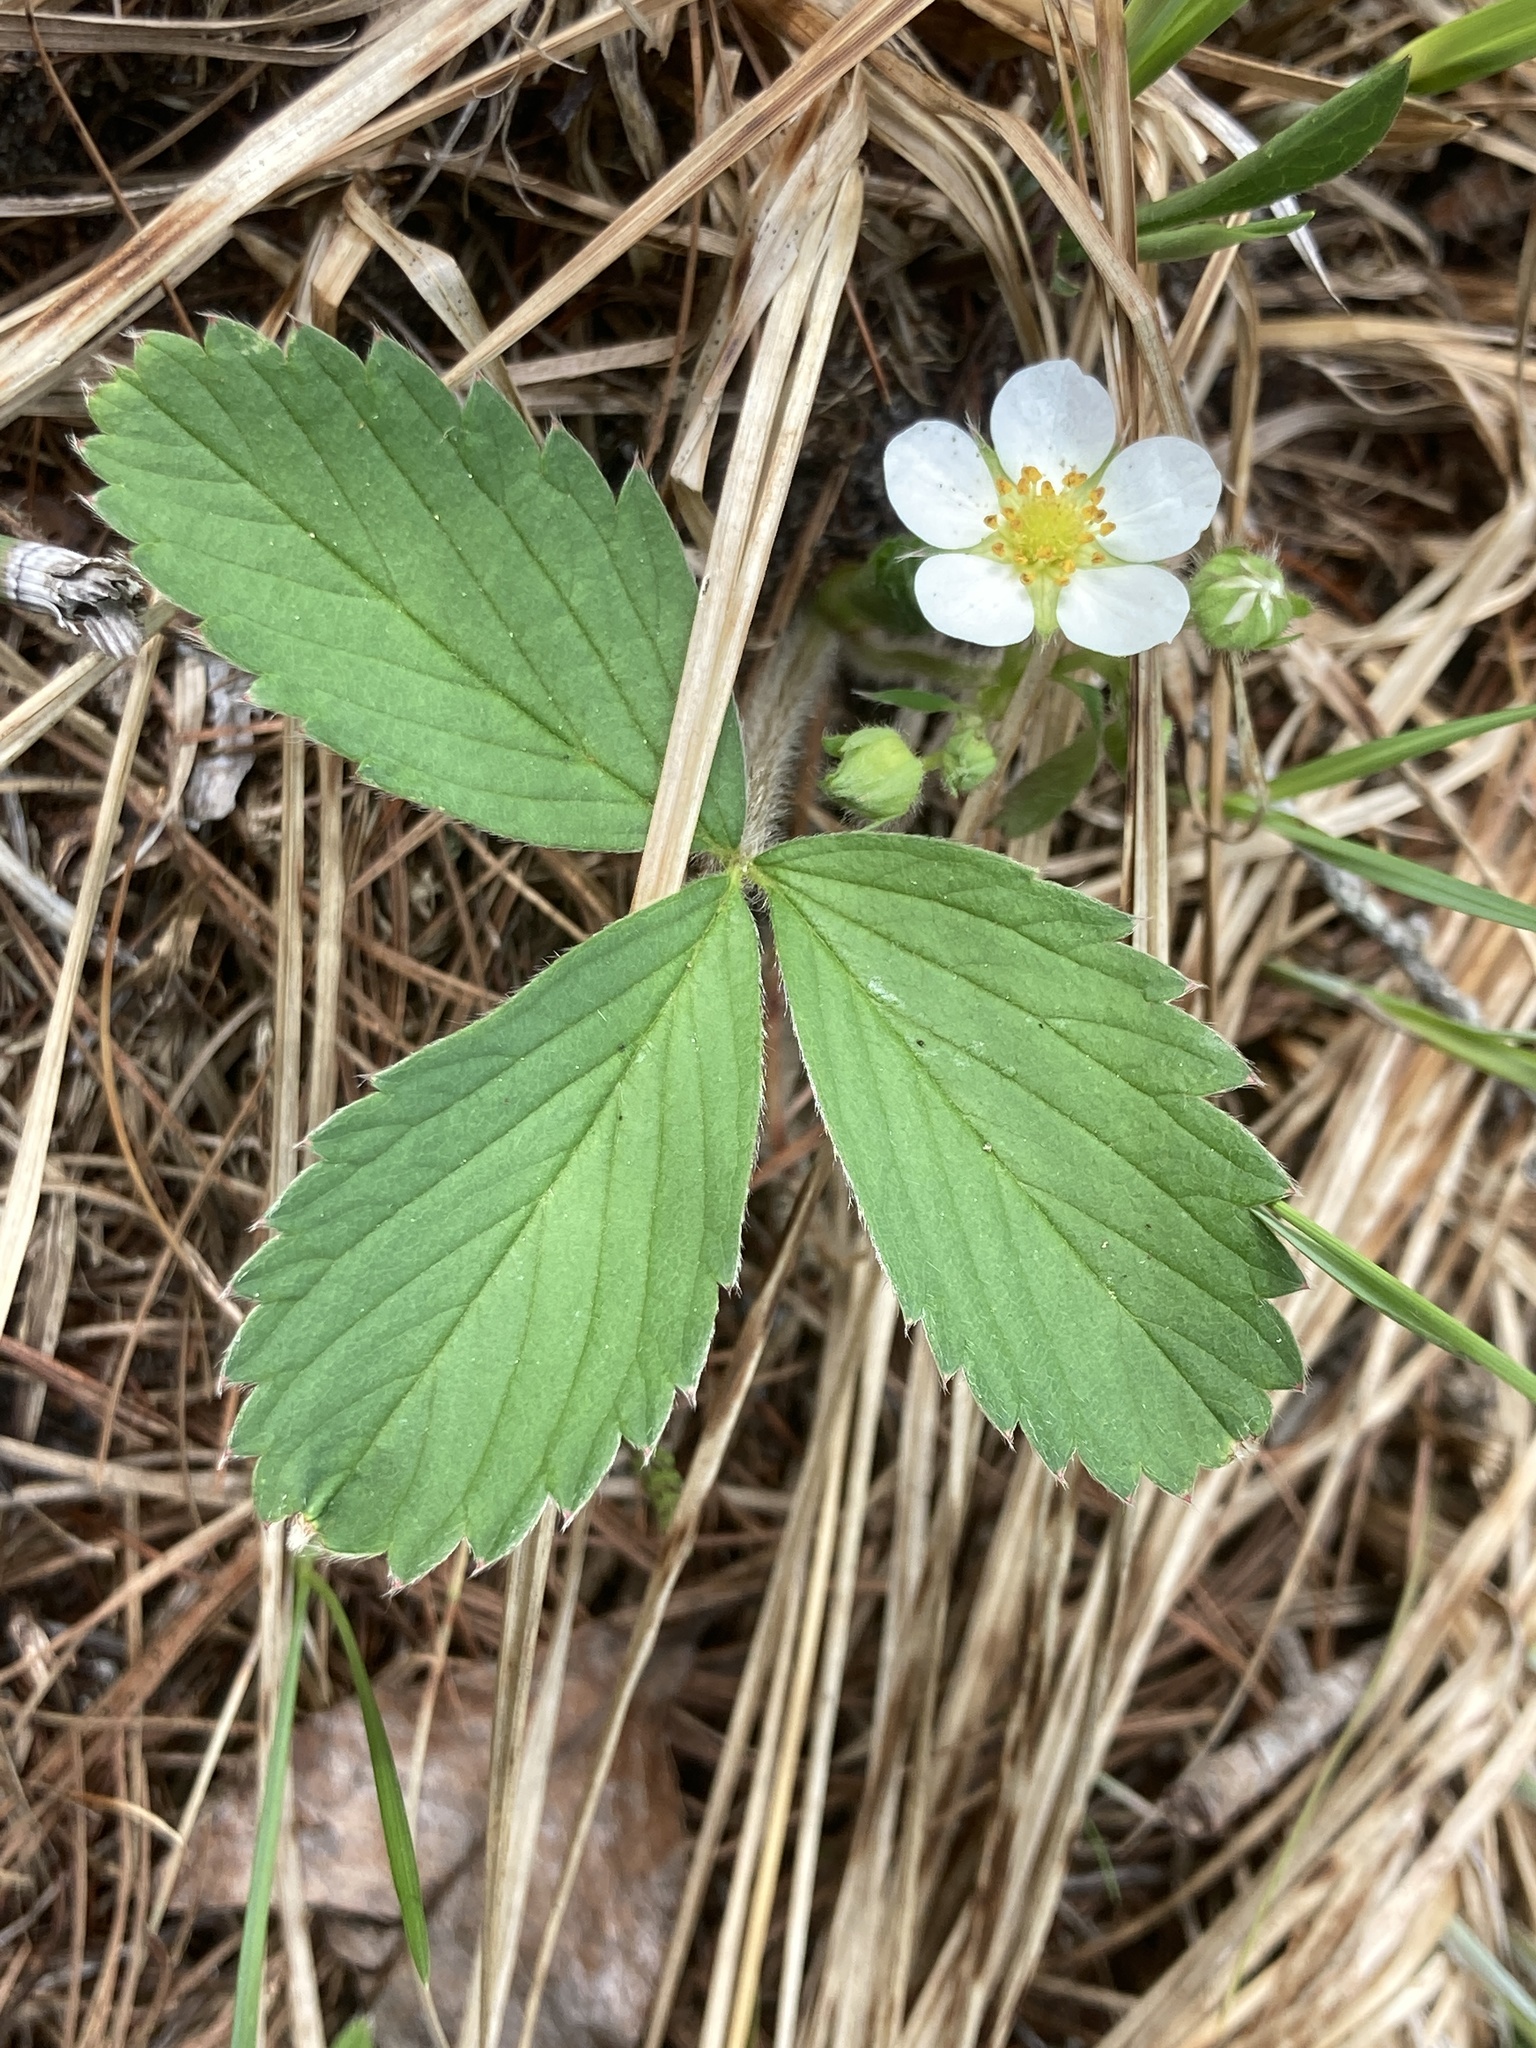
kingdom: Plantae
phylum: Tracheophyta
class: Magnoliopsida
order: Rosales
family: Rosaceae
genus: Fragaria
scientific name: Fragaria virginiana
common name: Thickleaved wild strawberry
